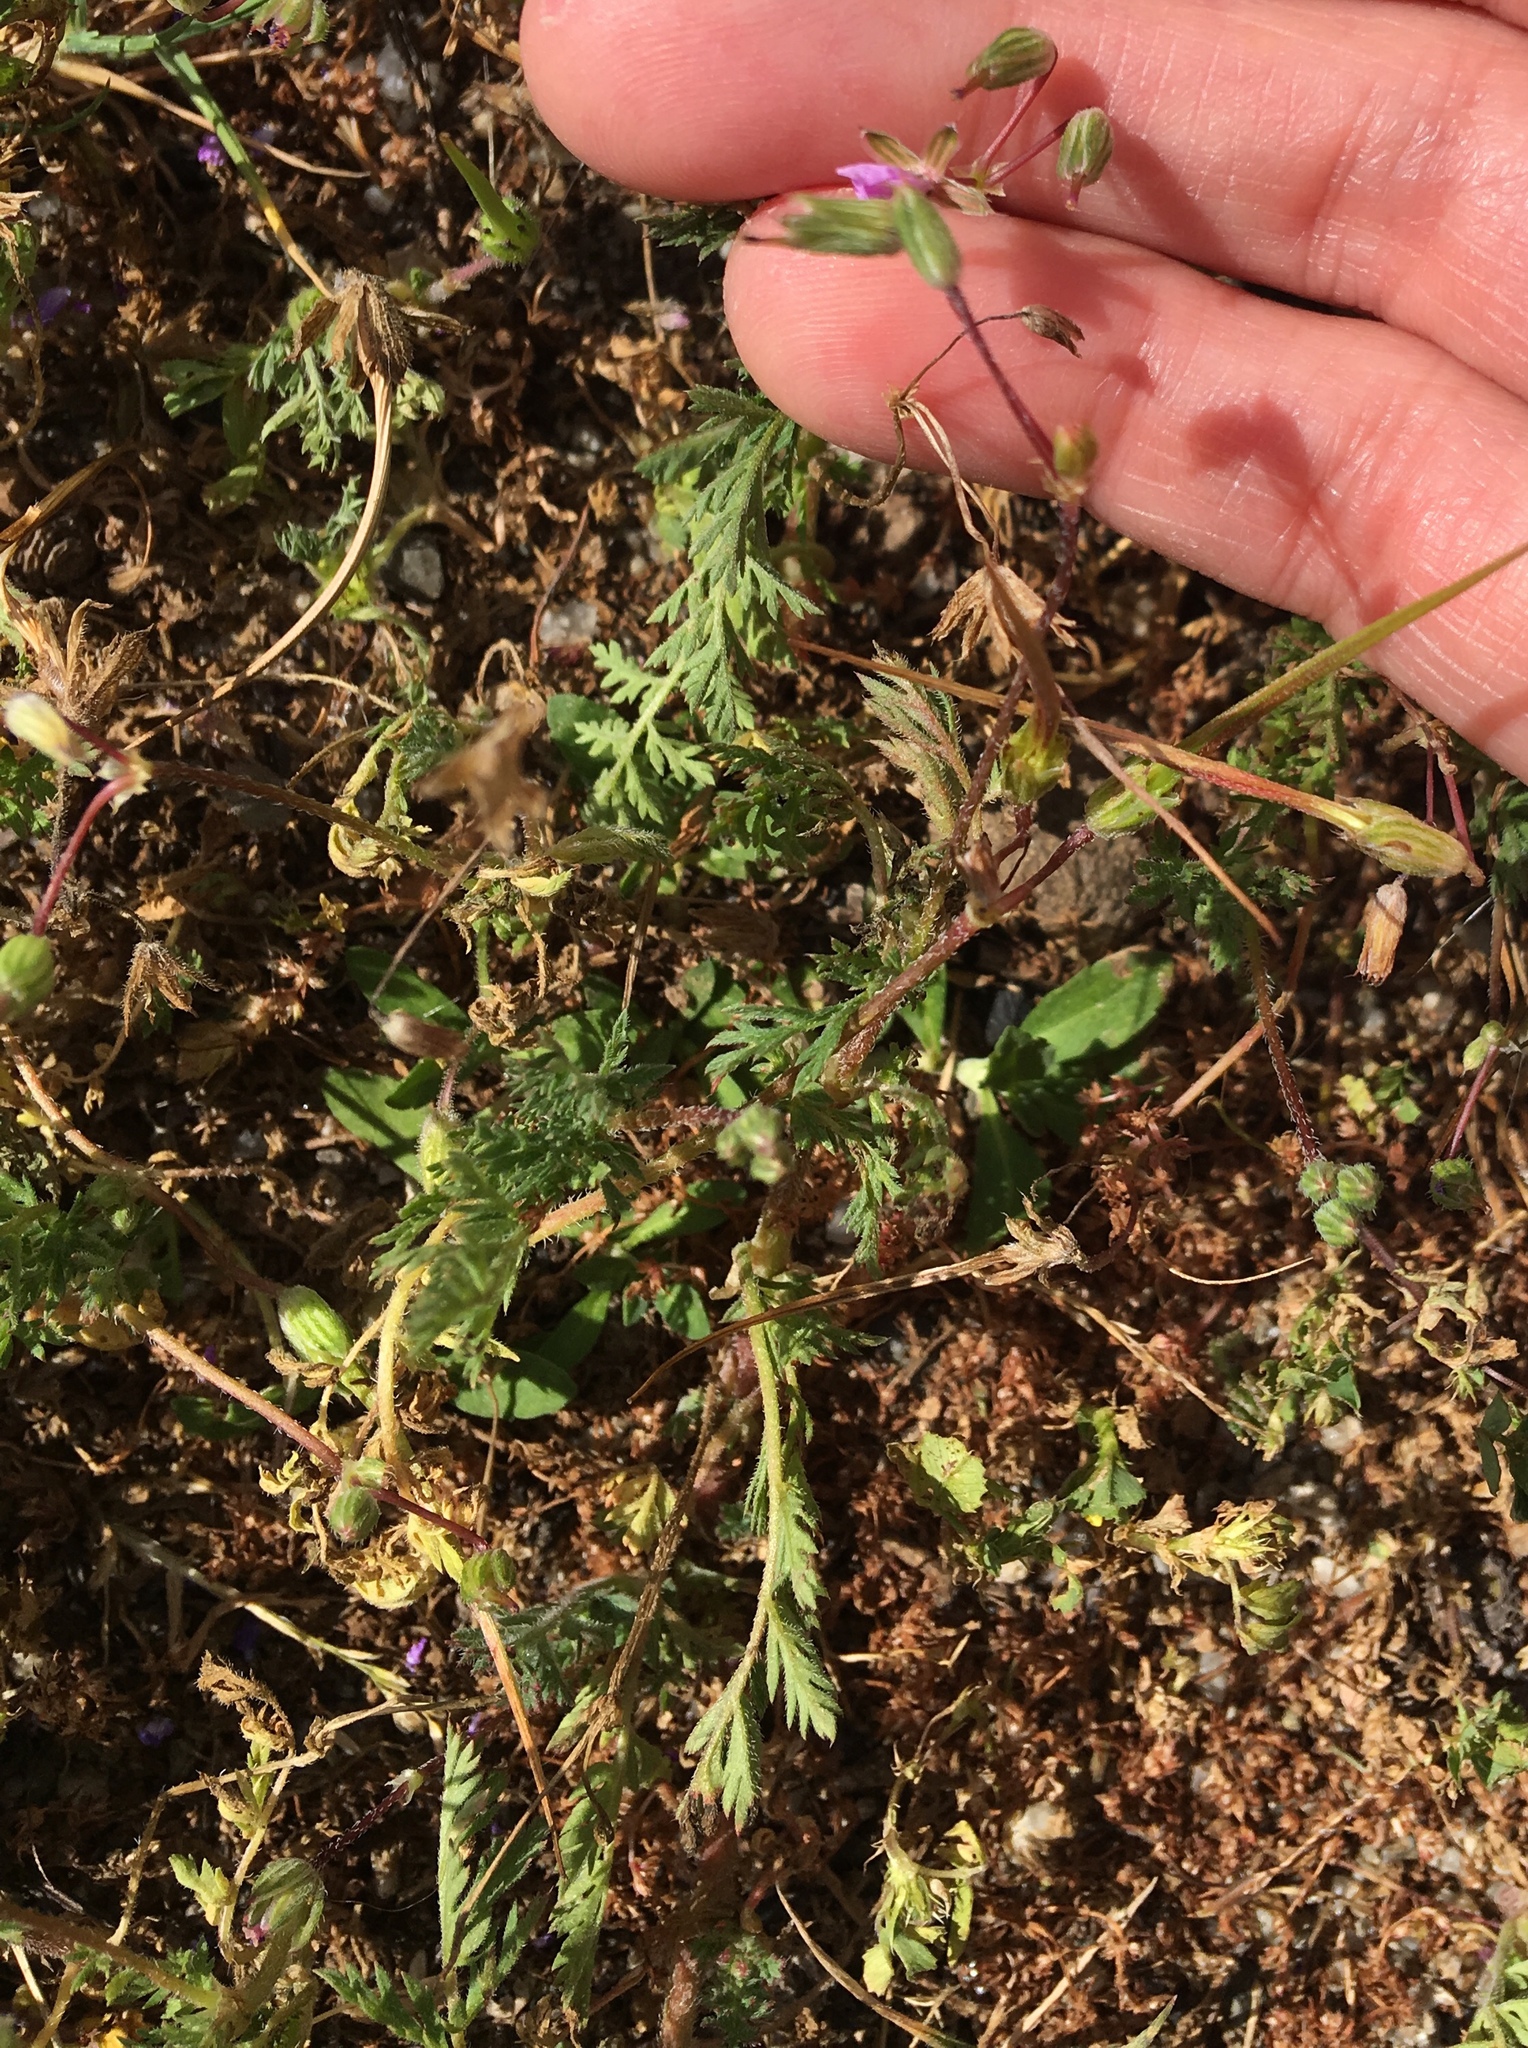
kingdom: Plantae
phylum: Tracheophyta
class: Magnoliopsida
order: Geraniales
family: Geraniaceae
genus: Erodium
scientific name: Erodium cicutarium
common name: Common stork's-bill
